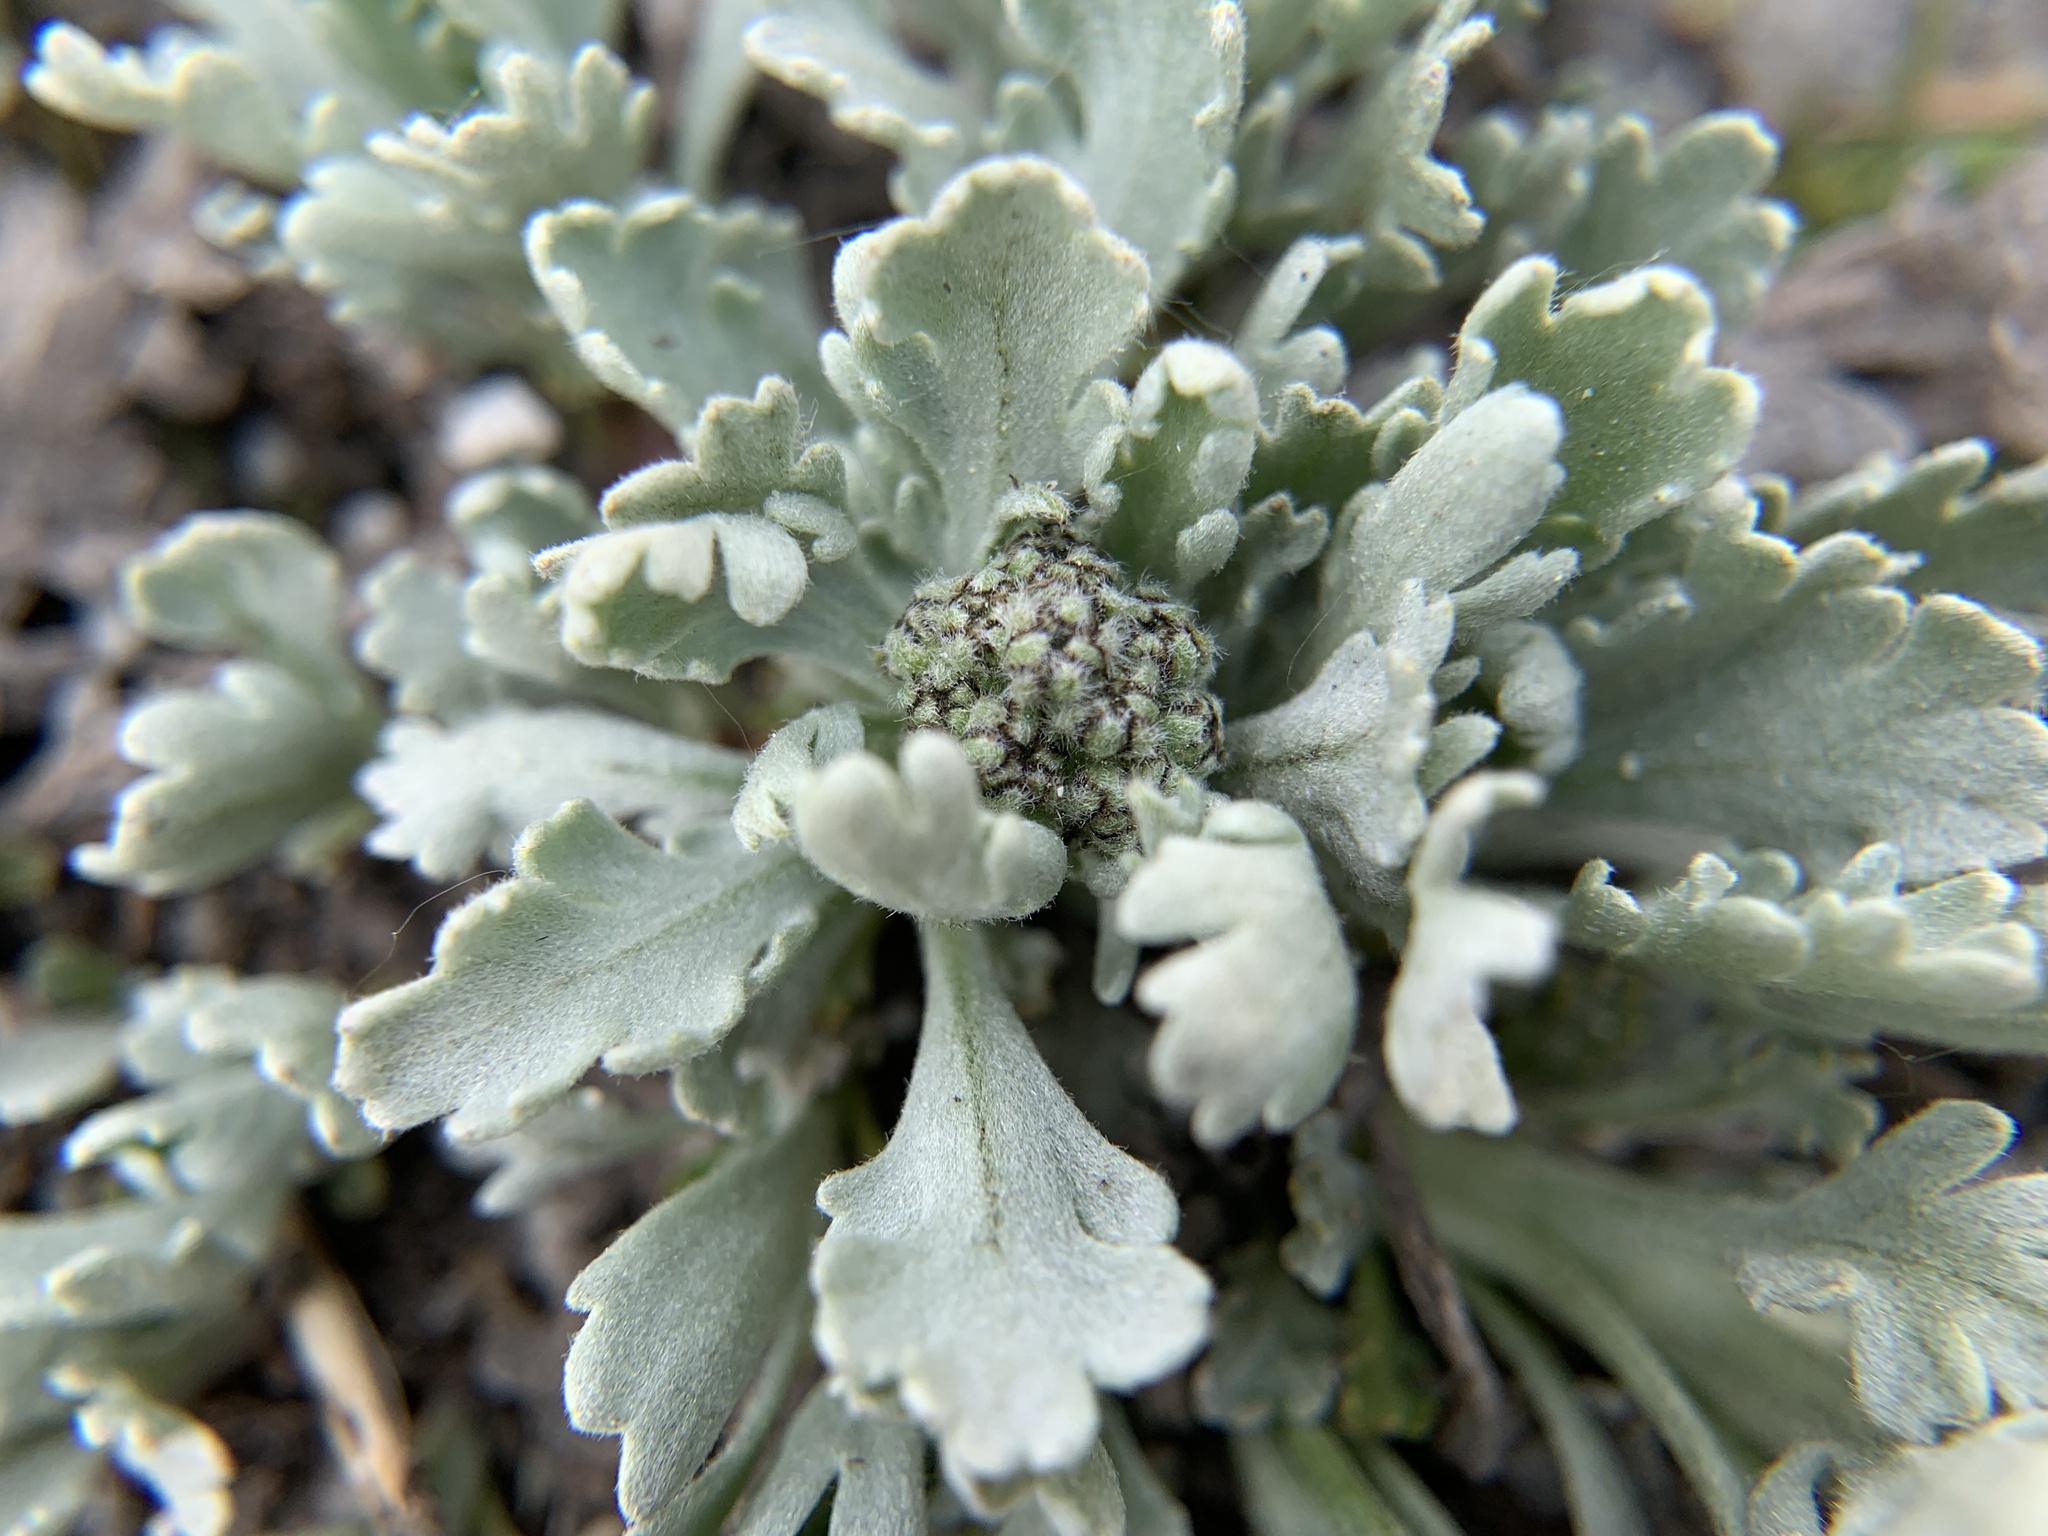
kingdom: Plantae
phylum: Tracheophyta
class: Magnoliopsida
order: Asterales
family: Asteraceae
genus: Achillea
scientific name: Achillea clavennae
